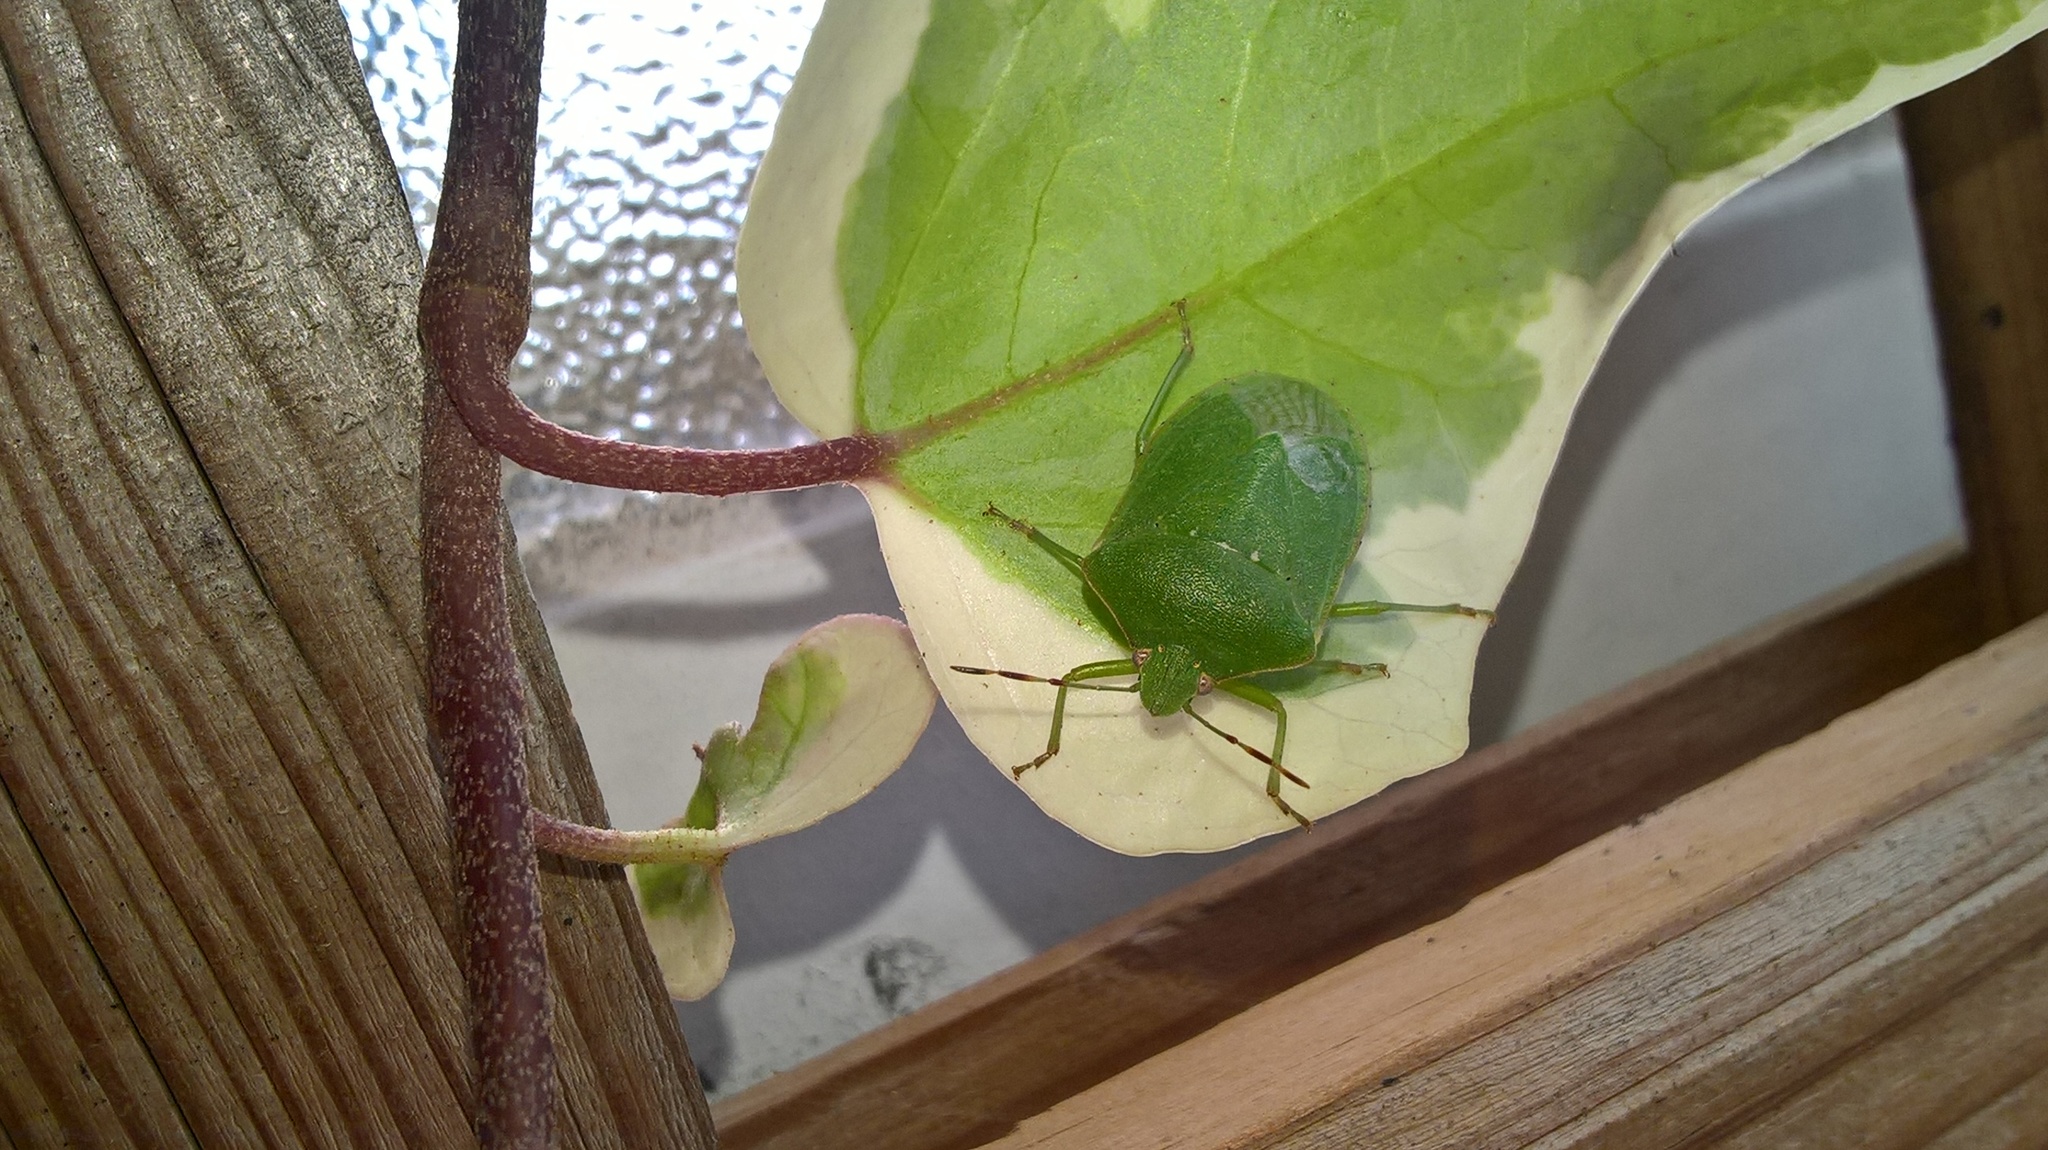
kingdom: Animalia
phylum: Arthropoda
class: Insecta
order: Hemiptera
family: Pentatomidae
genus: Nezara
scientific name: Nezara viridula
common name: Southern green stink bug
